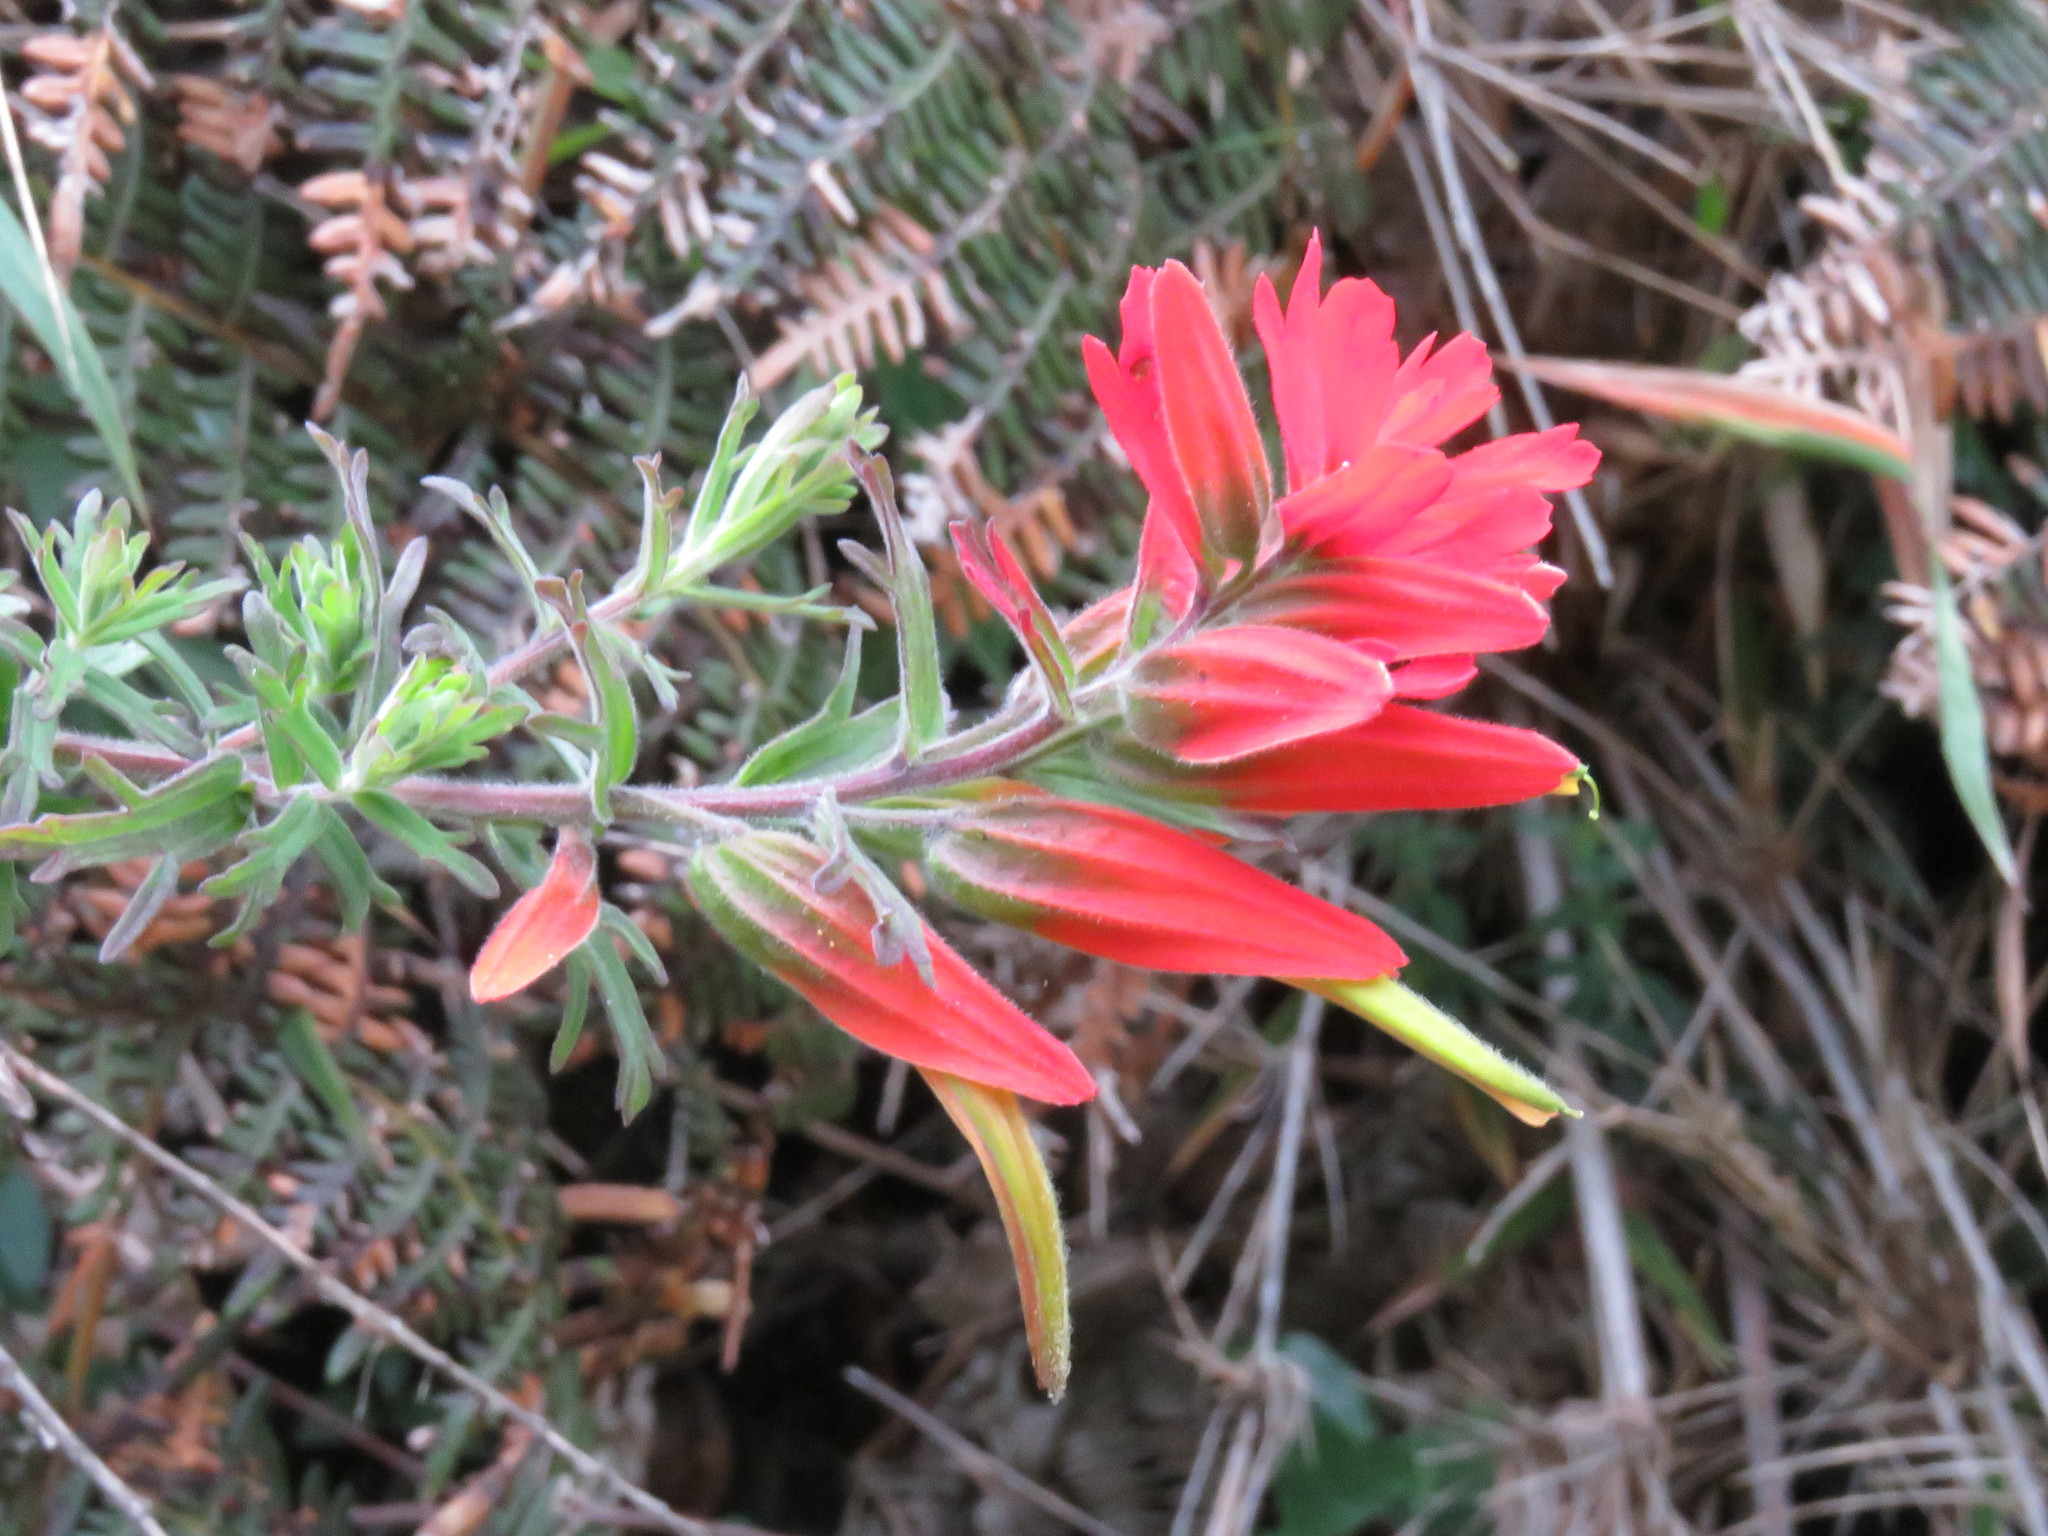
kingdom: Plantae
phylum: Tracheophyta
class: Magnoliopsida
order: Lamiales
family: Orobanchaceae
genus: Castilleja
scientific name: Castilleja fissifolia
